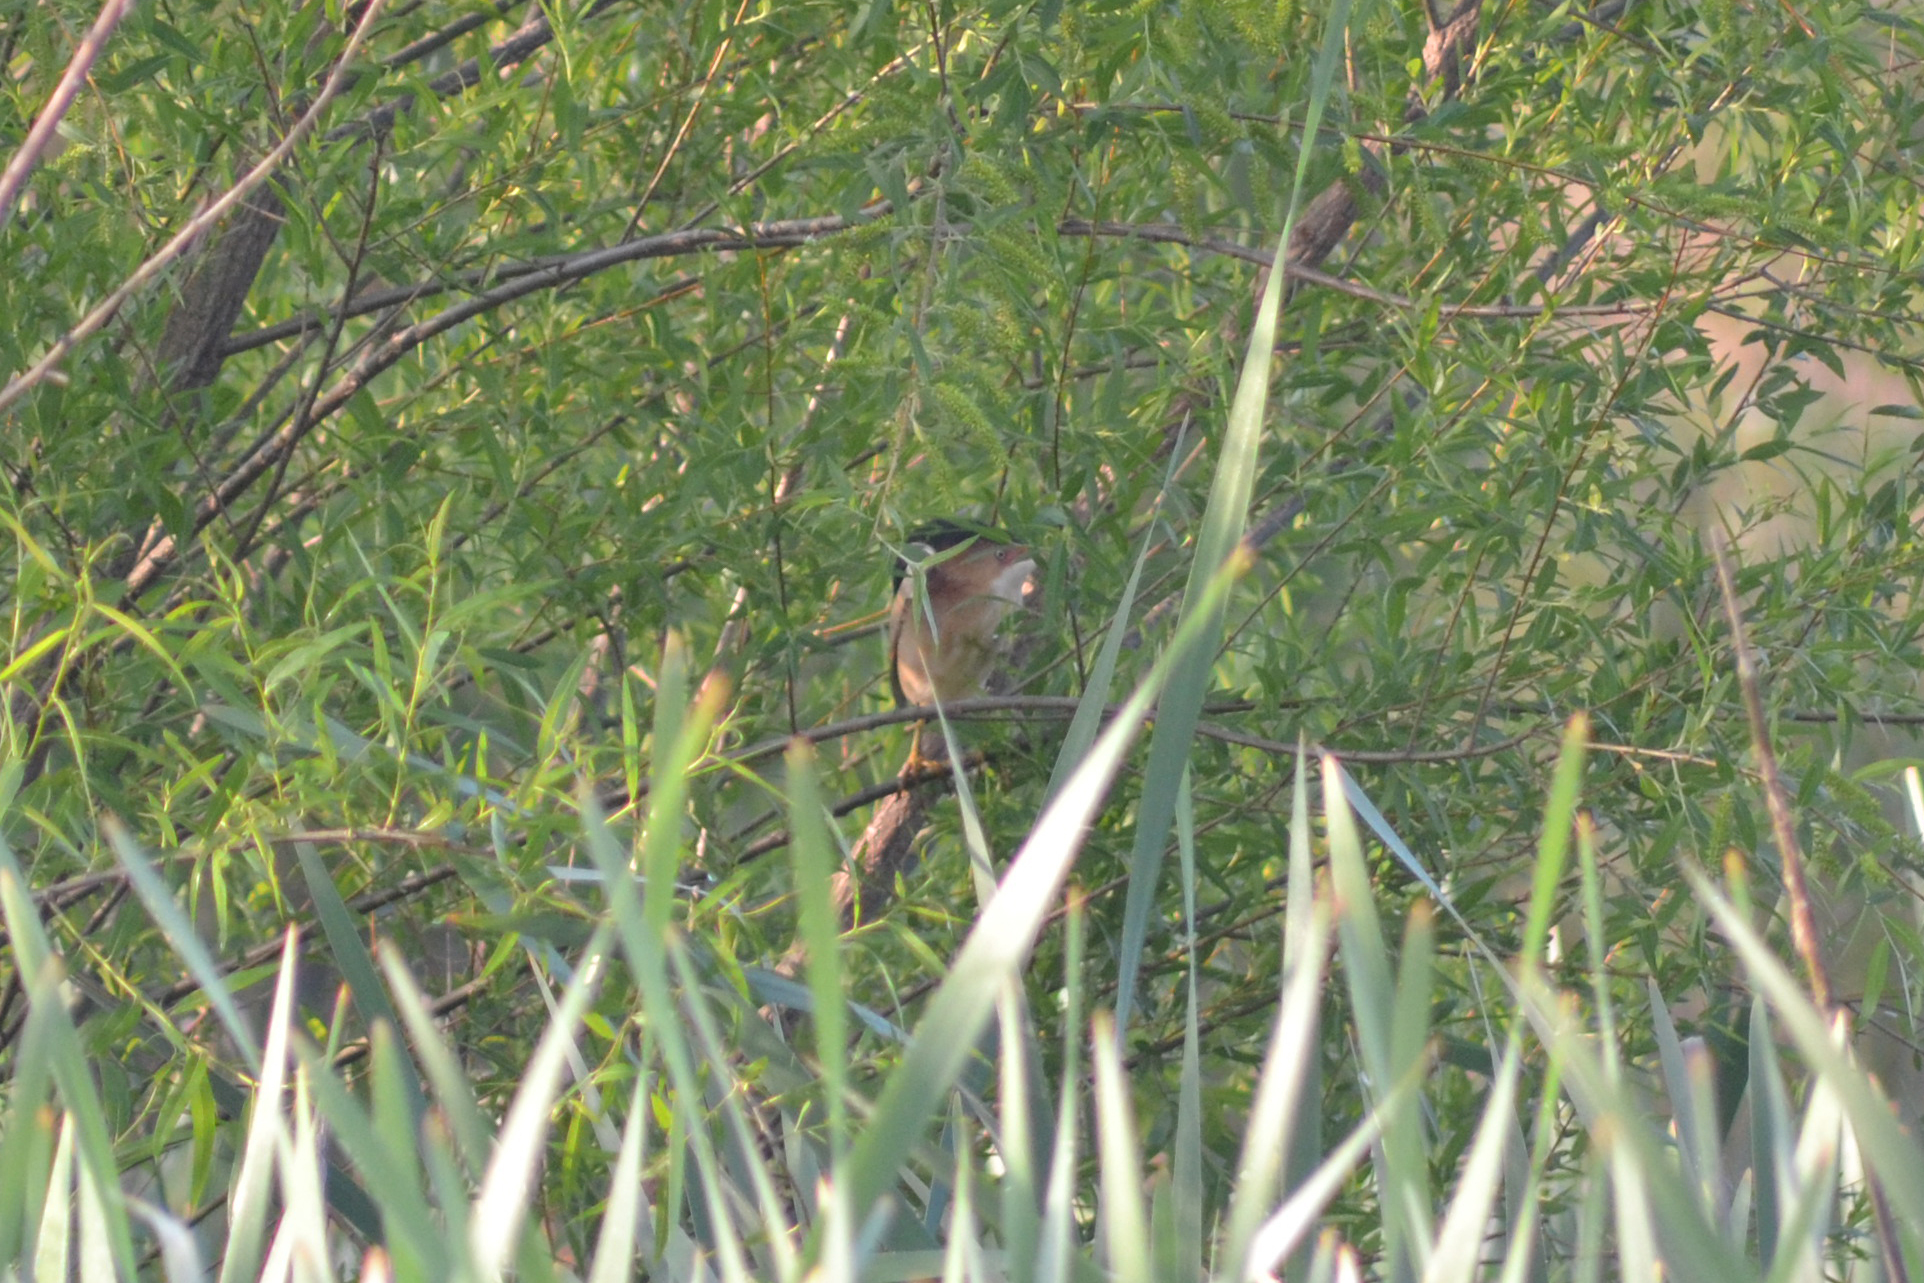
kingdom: Animalia
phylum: Chordata
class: Aves
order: Pelecaniformes
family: Ardeidae
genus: Ixobrychus
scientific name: Ixobrychus exilis
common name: Least bittern
